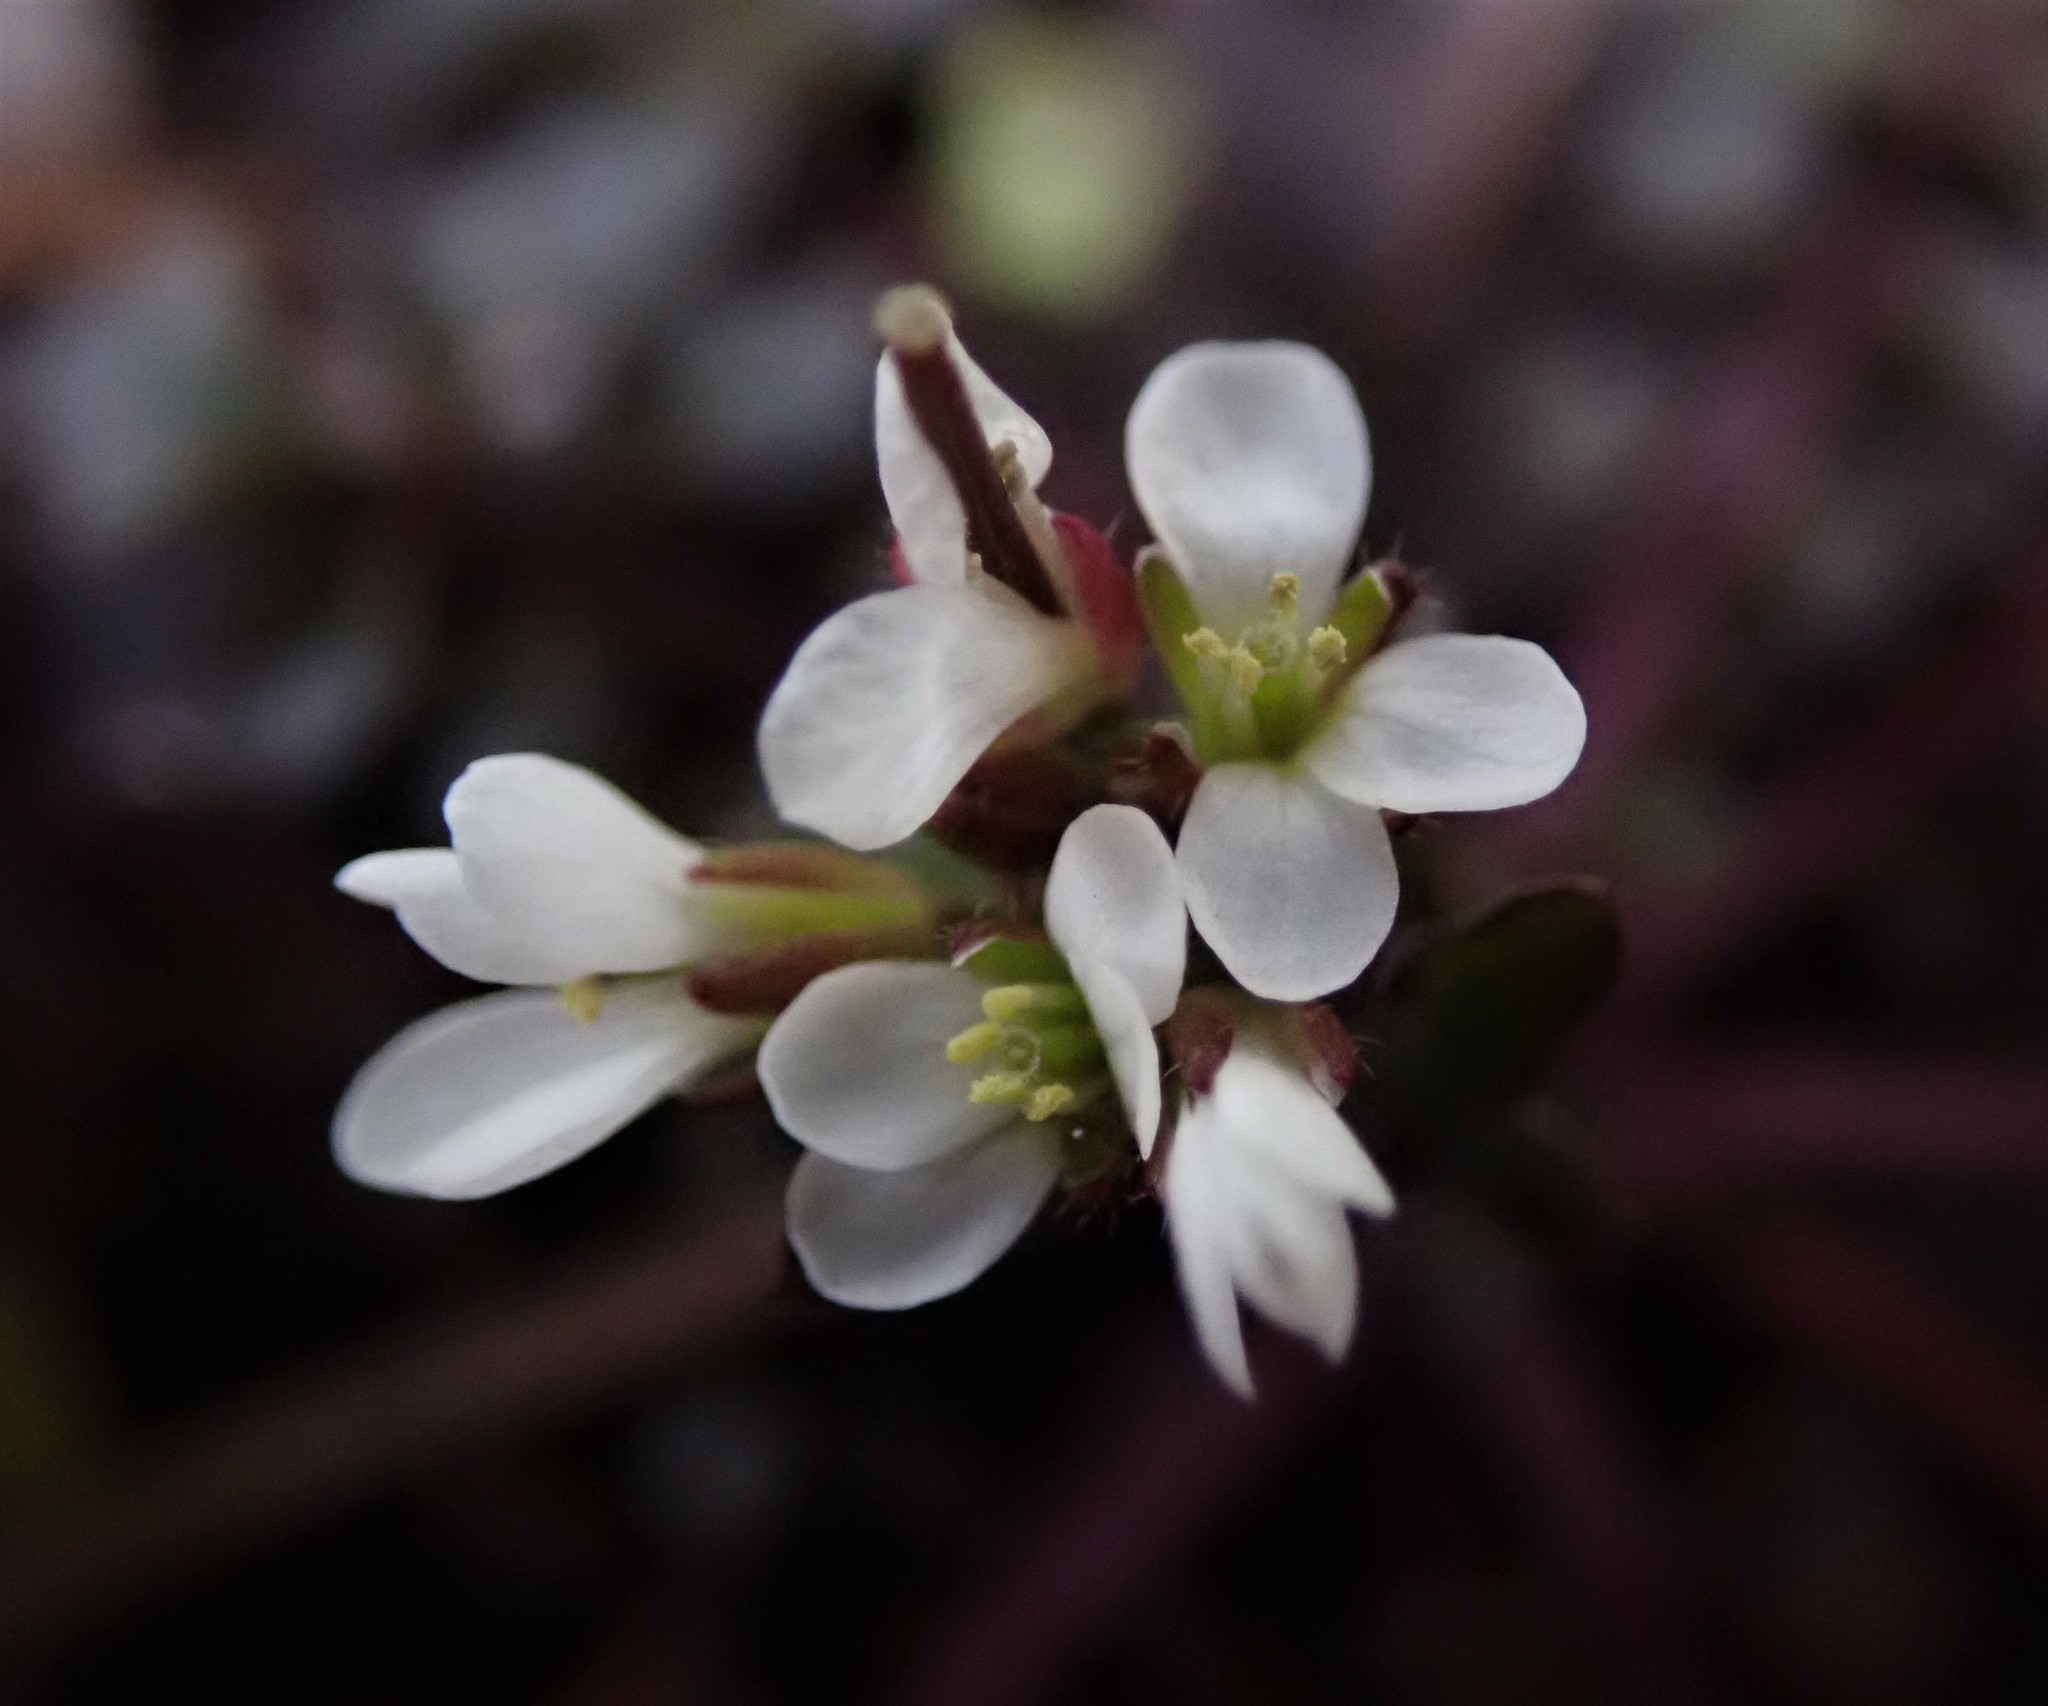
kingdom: Plantae
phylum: Tracheophyta
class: Magnoliopsida
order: Brassicales
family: Brassicaceae
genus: Cardamine
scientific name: Cardamine hirsuta
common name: Hairy bittercress
